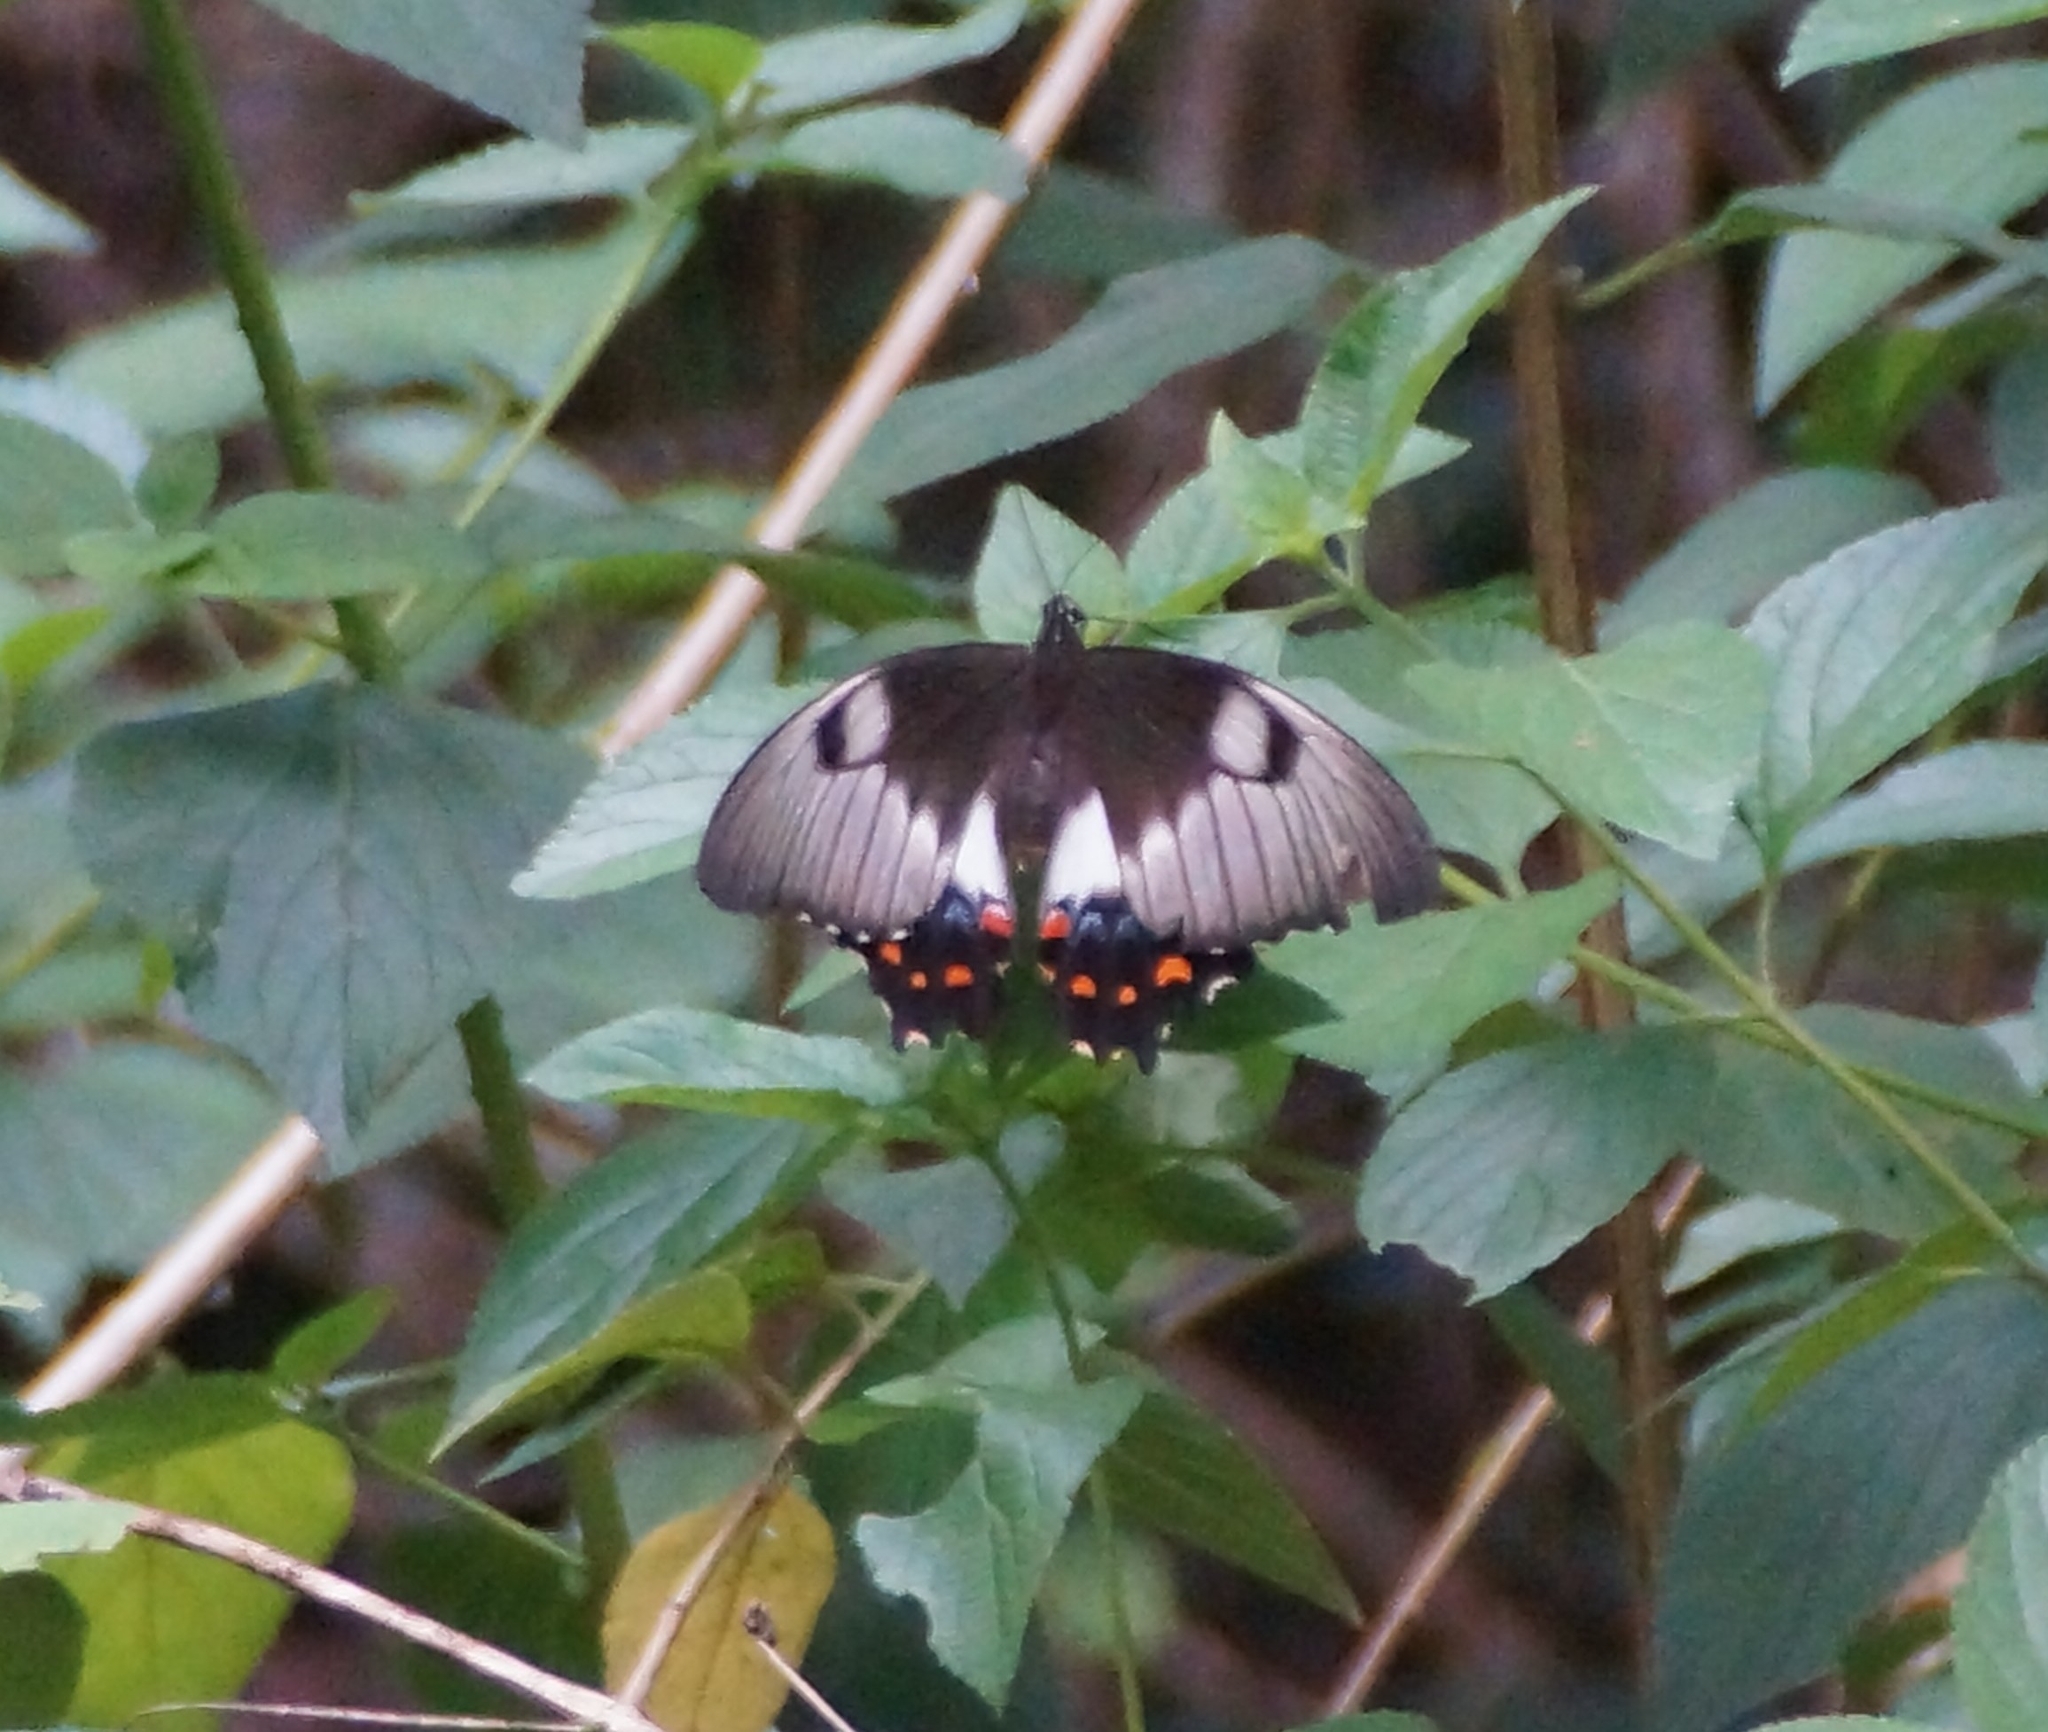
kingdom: Animalia
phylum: Arthropoda
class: Insecta
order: Lepidoptera
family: Papilionidae
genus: Papilio
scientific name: Papilio aegeus
